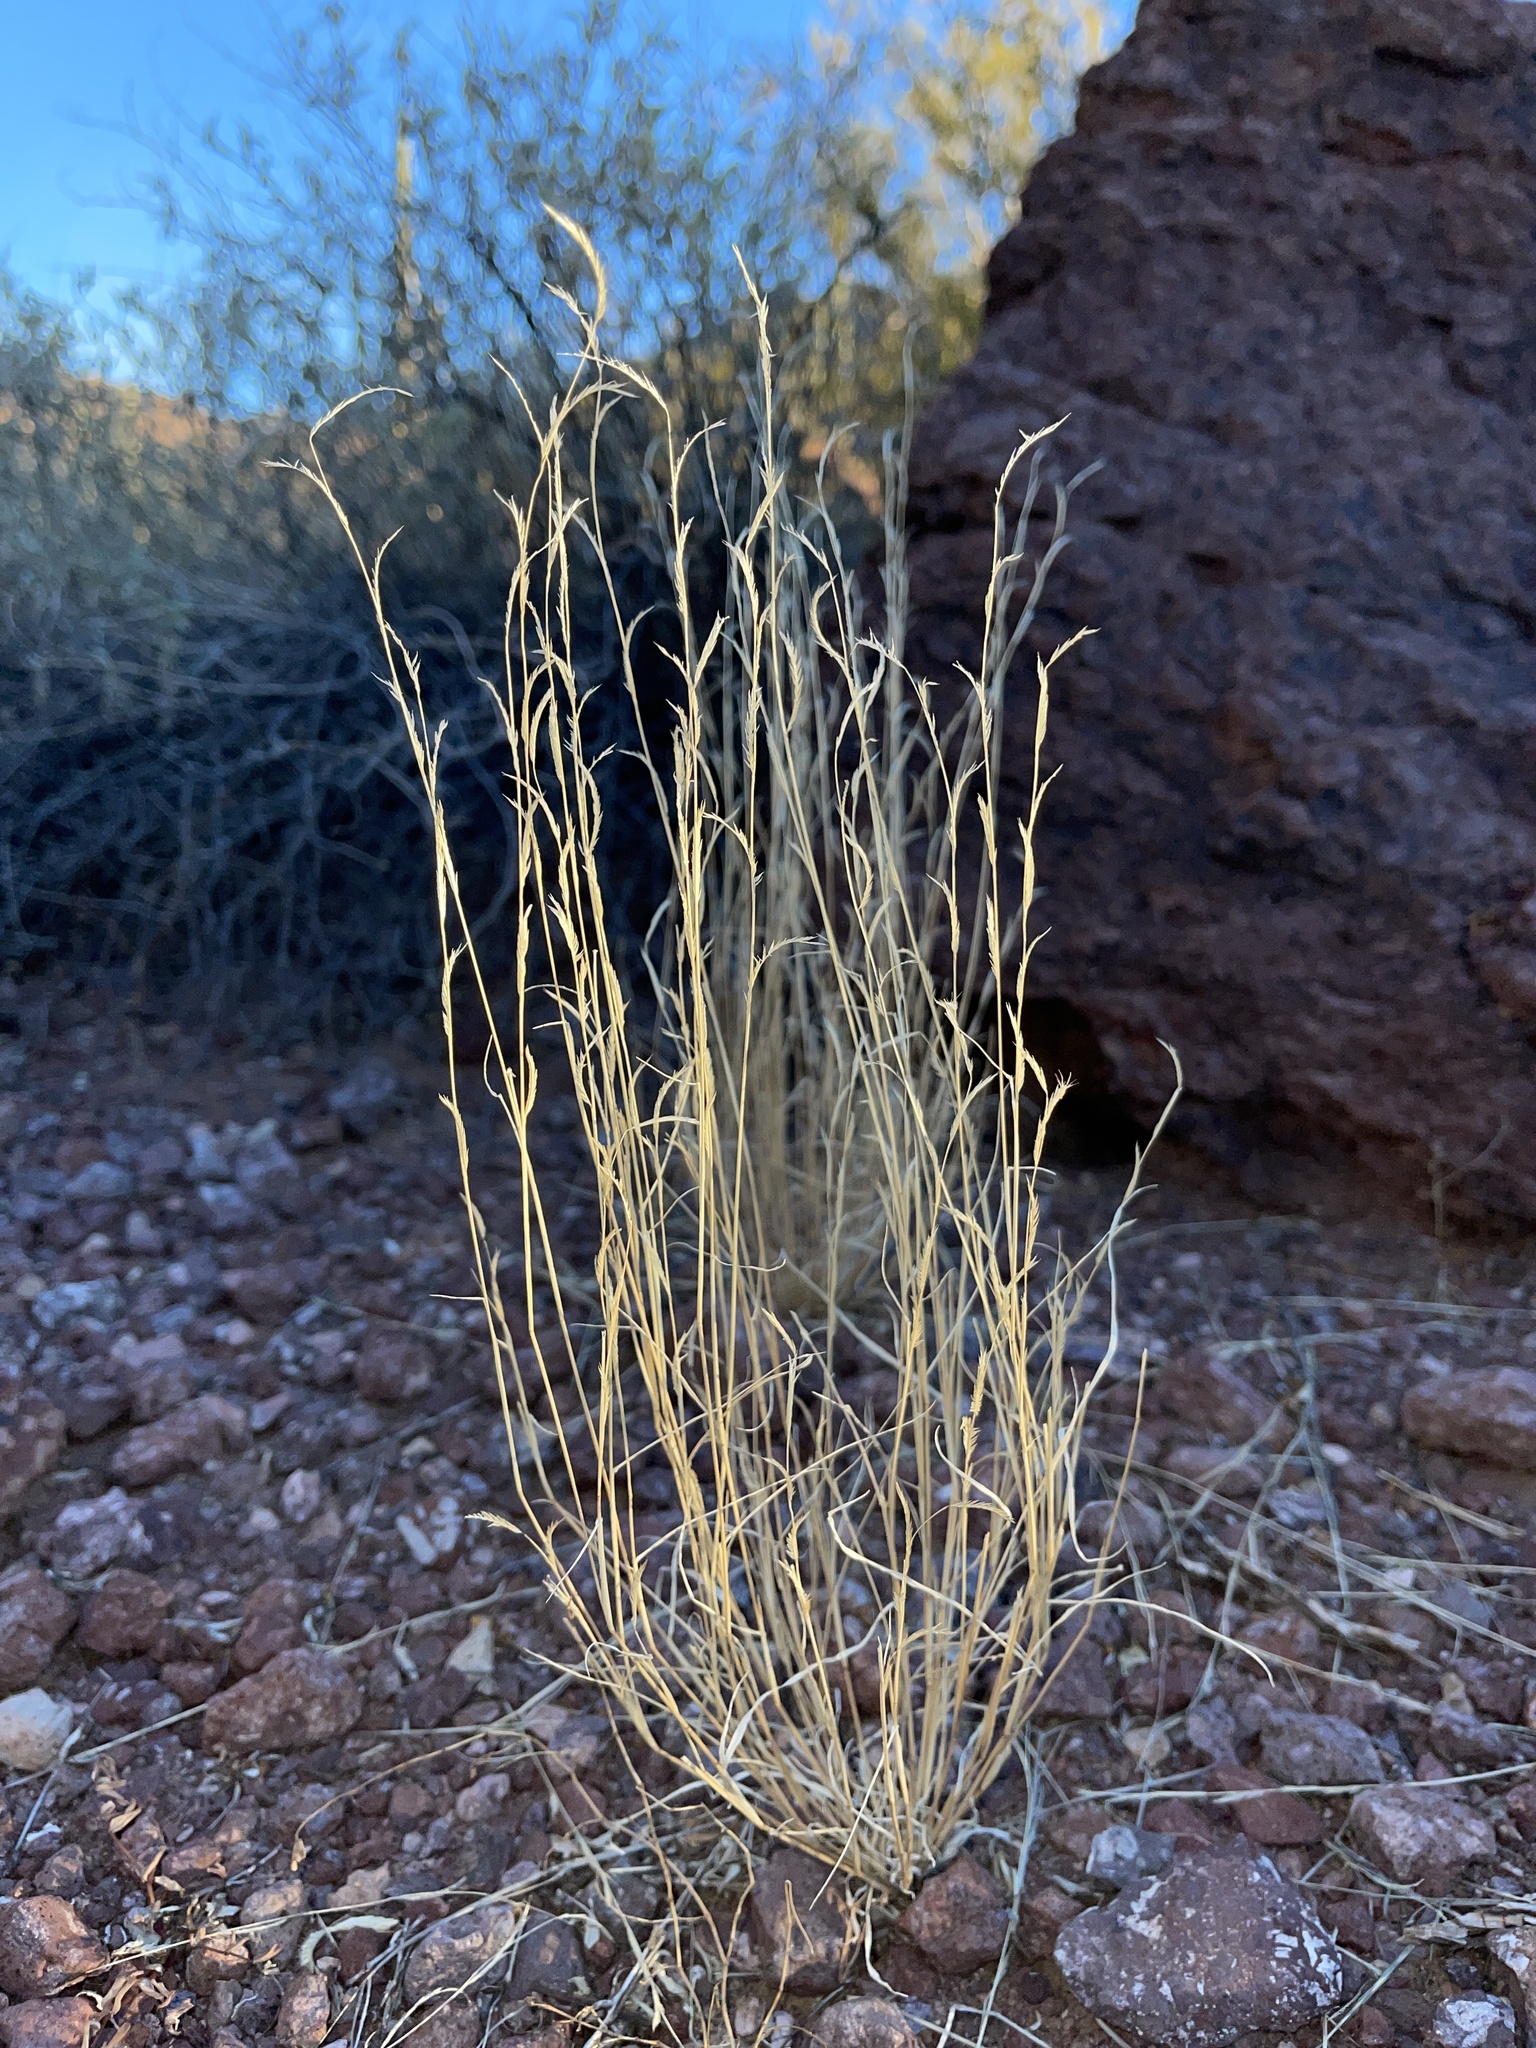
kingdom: Plantae
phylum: Tracheophyta
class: Liliopsida
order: Poales
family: Poaceae
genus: Bouteloua
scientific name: Bouteloua barbata
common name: Six-weeks grama
